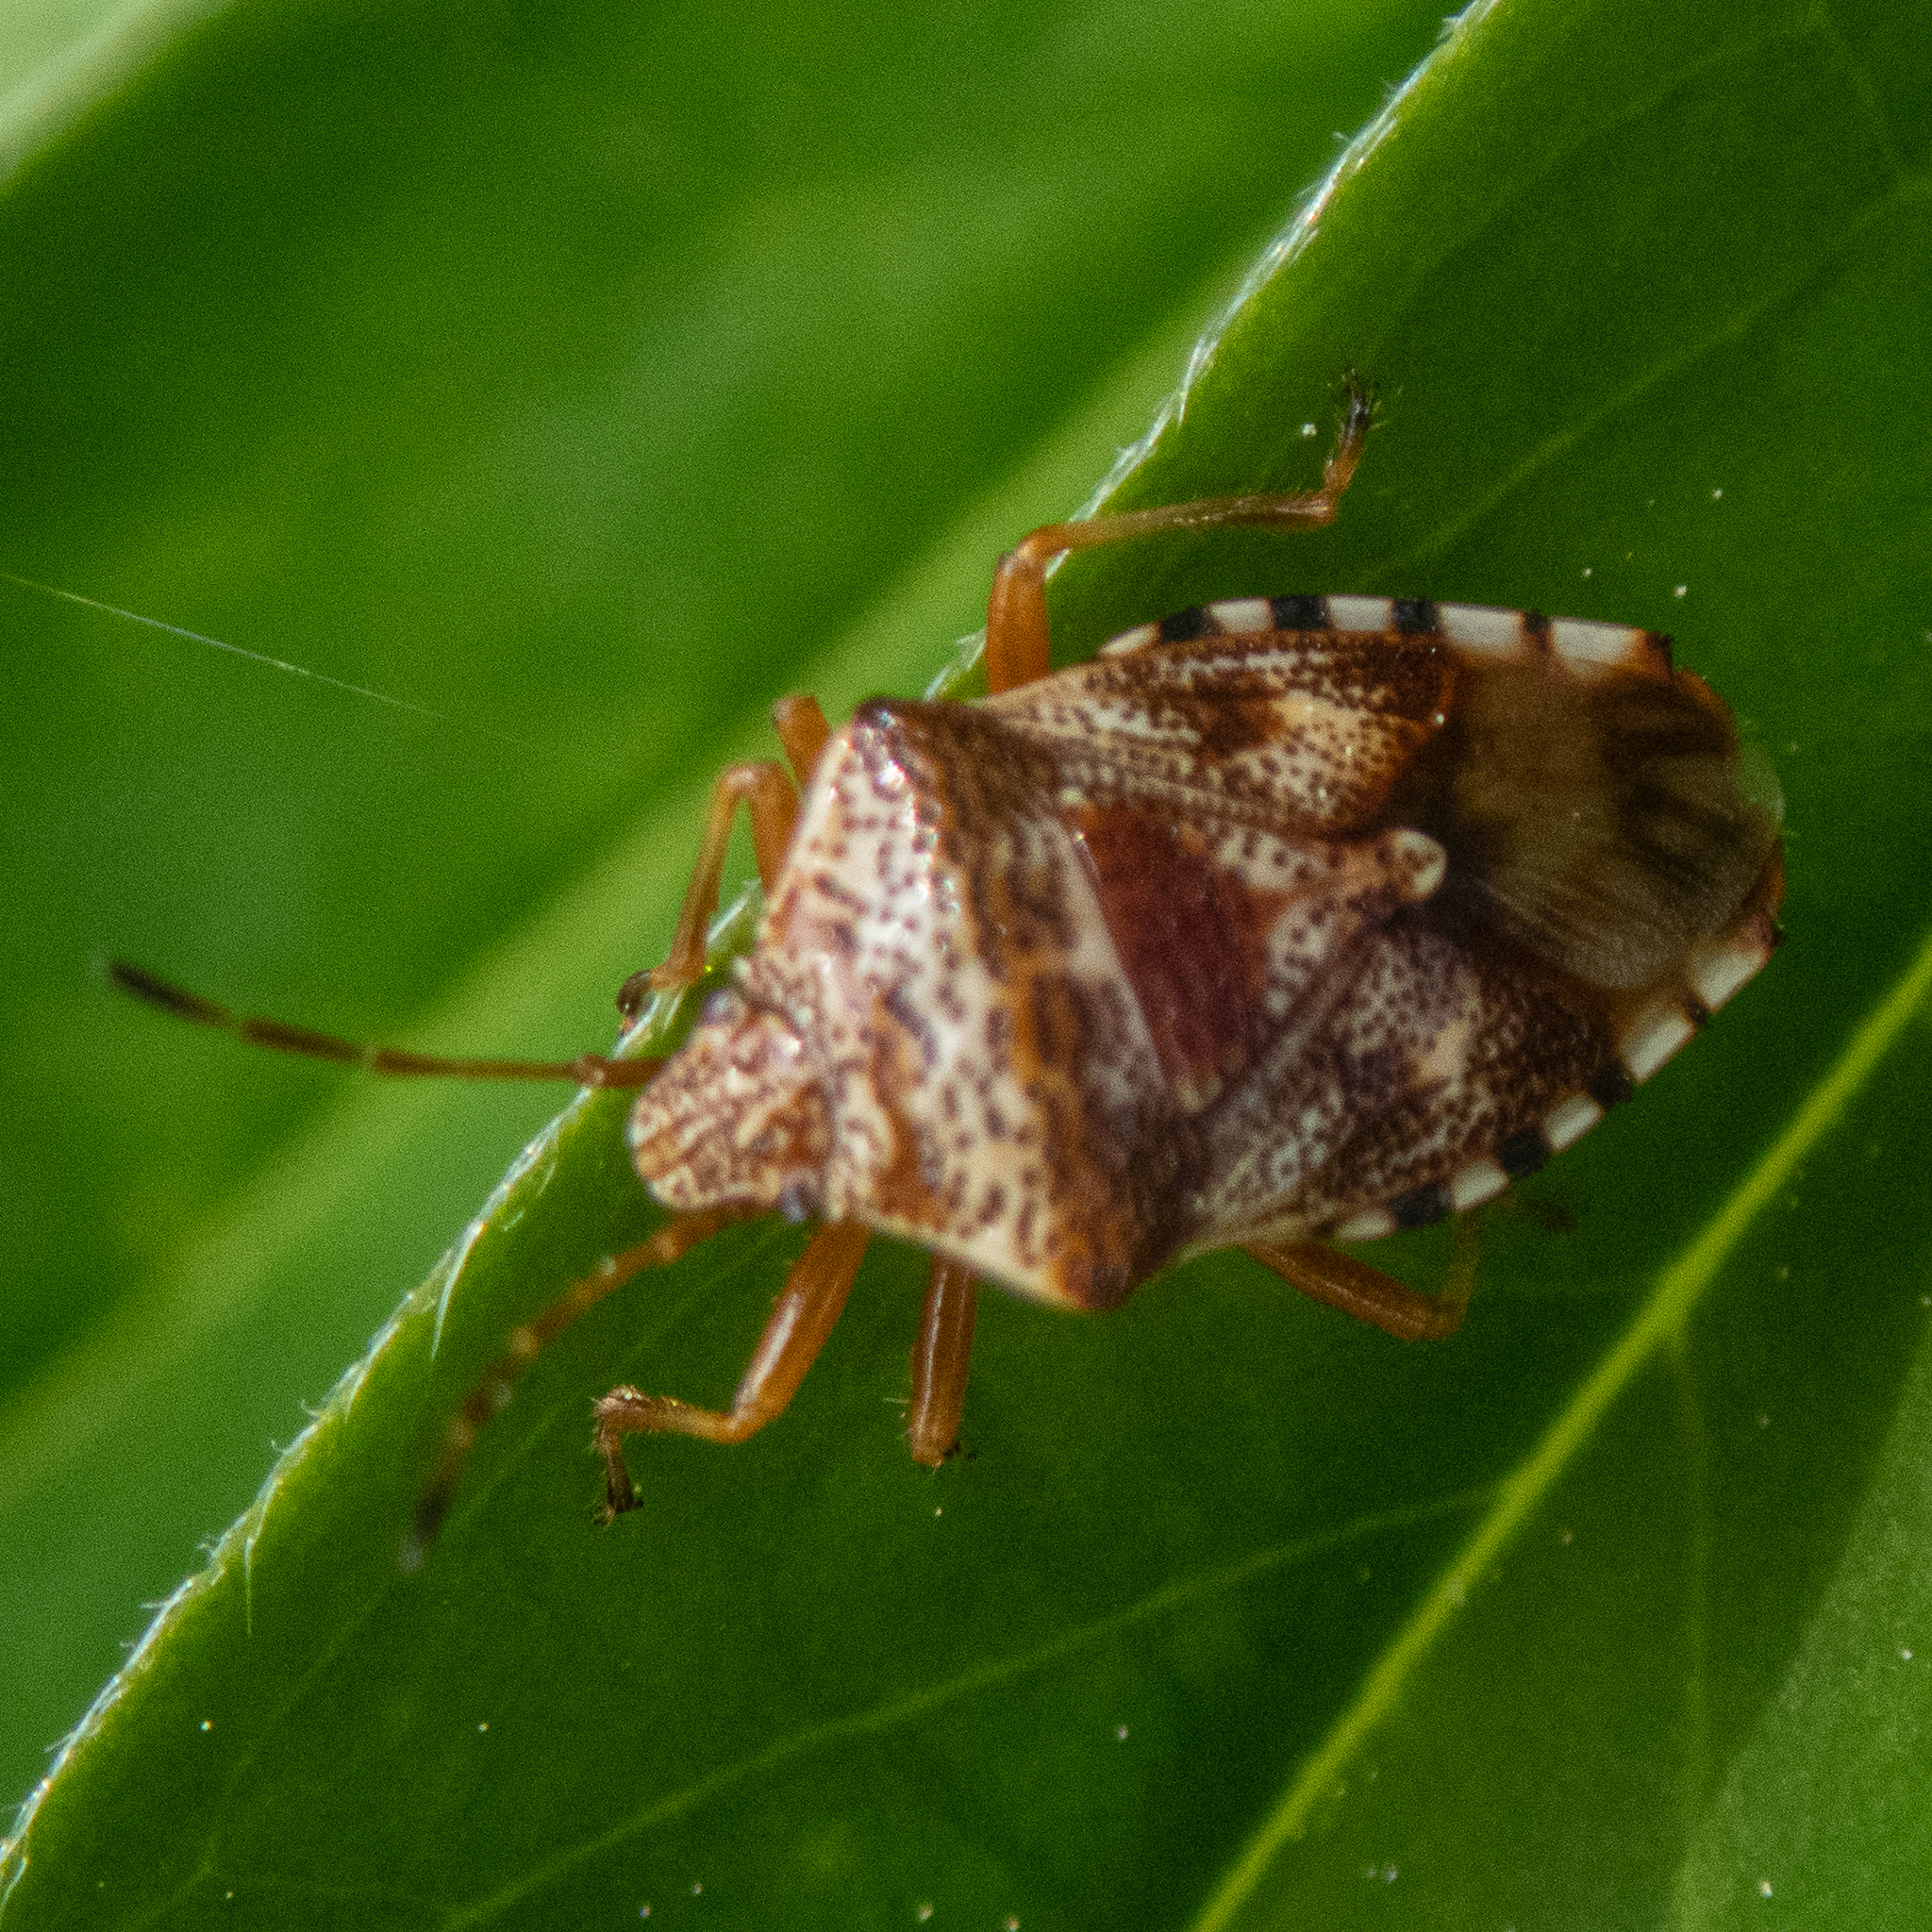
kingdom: Animalia
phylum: Arthropoda
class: Insecta
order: Hemiptera
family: Acanthosomatidae
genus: Elasmucha
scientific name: Elasmucha lateralis
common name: Shield bug
